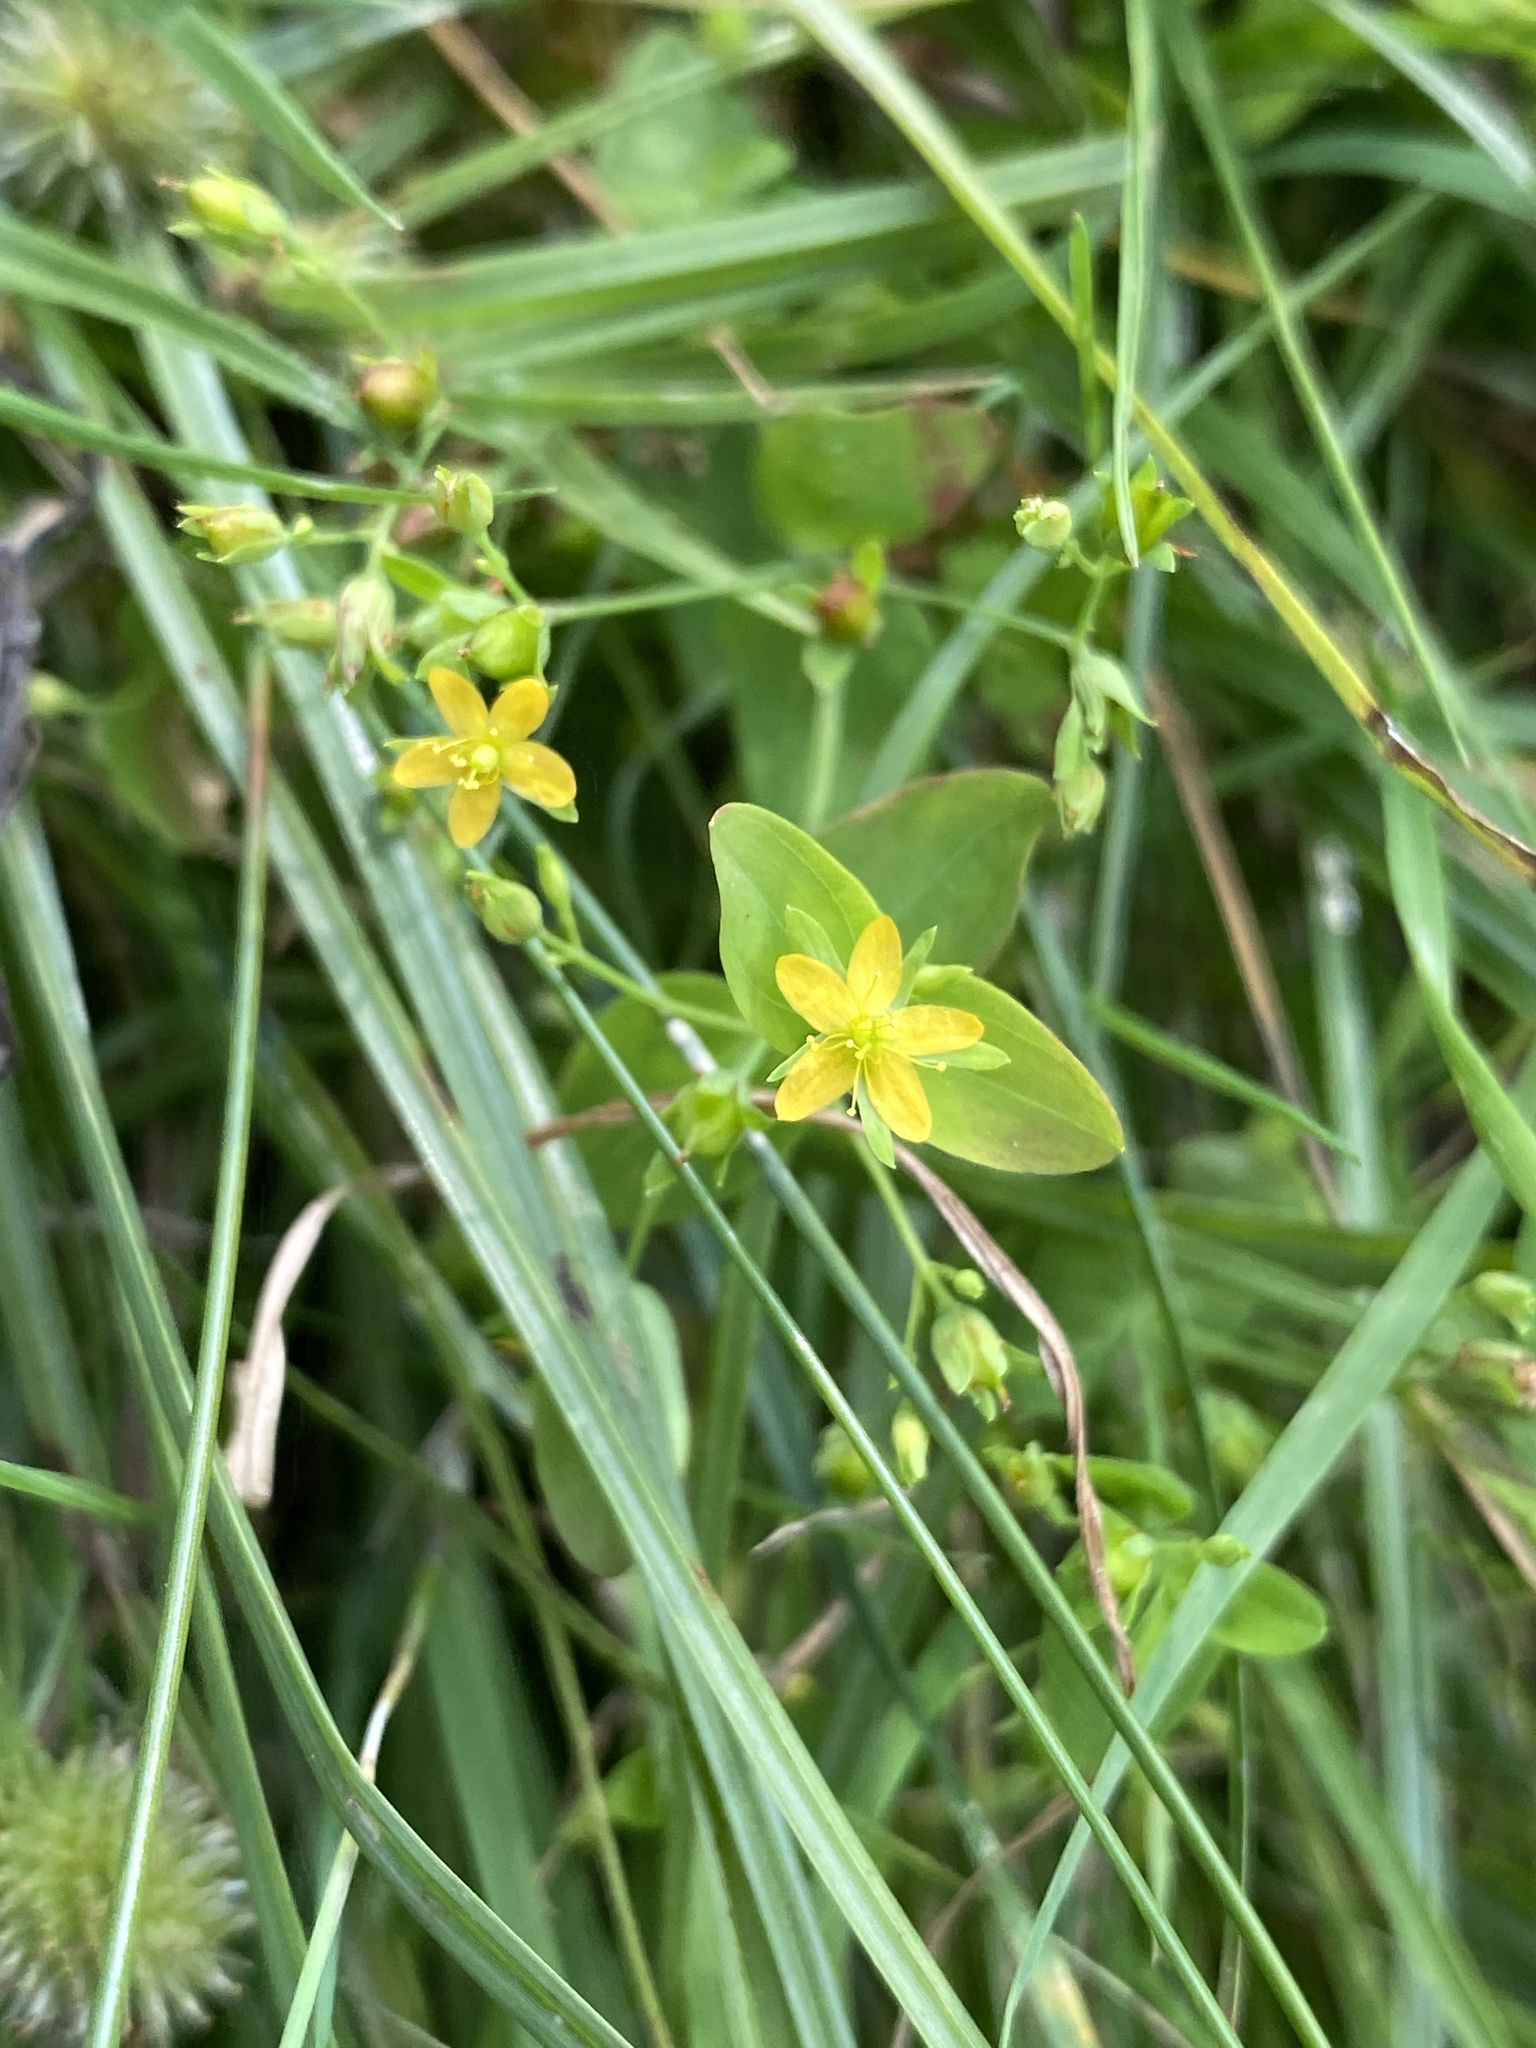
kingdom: Plantae
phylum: Tracheophyta
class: Magnoliopsida
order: Malpighiales
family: Hypericaceae
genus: Hypericum
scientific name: Hypericum mutilum
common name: Dwarf st. john's-wort
